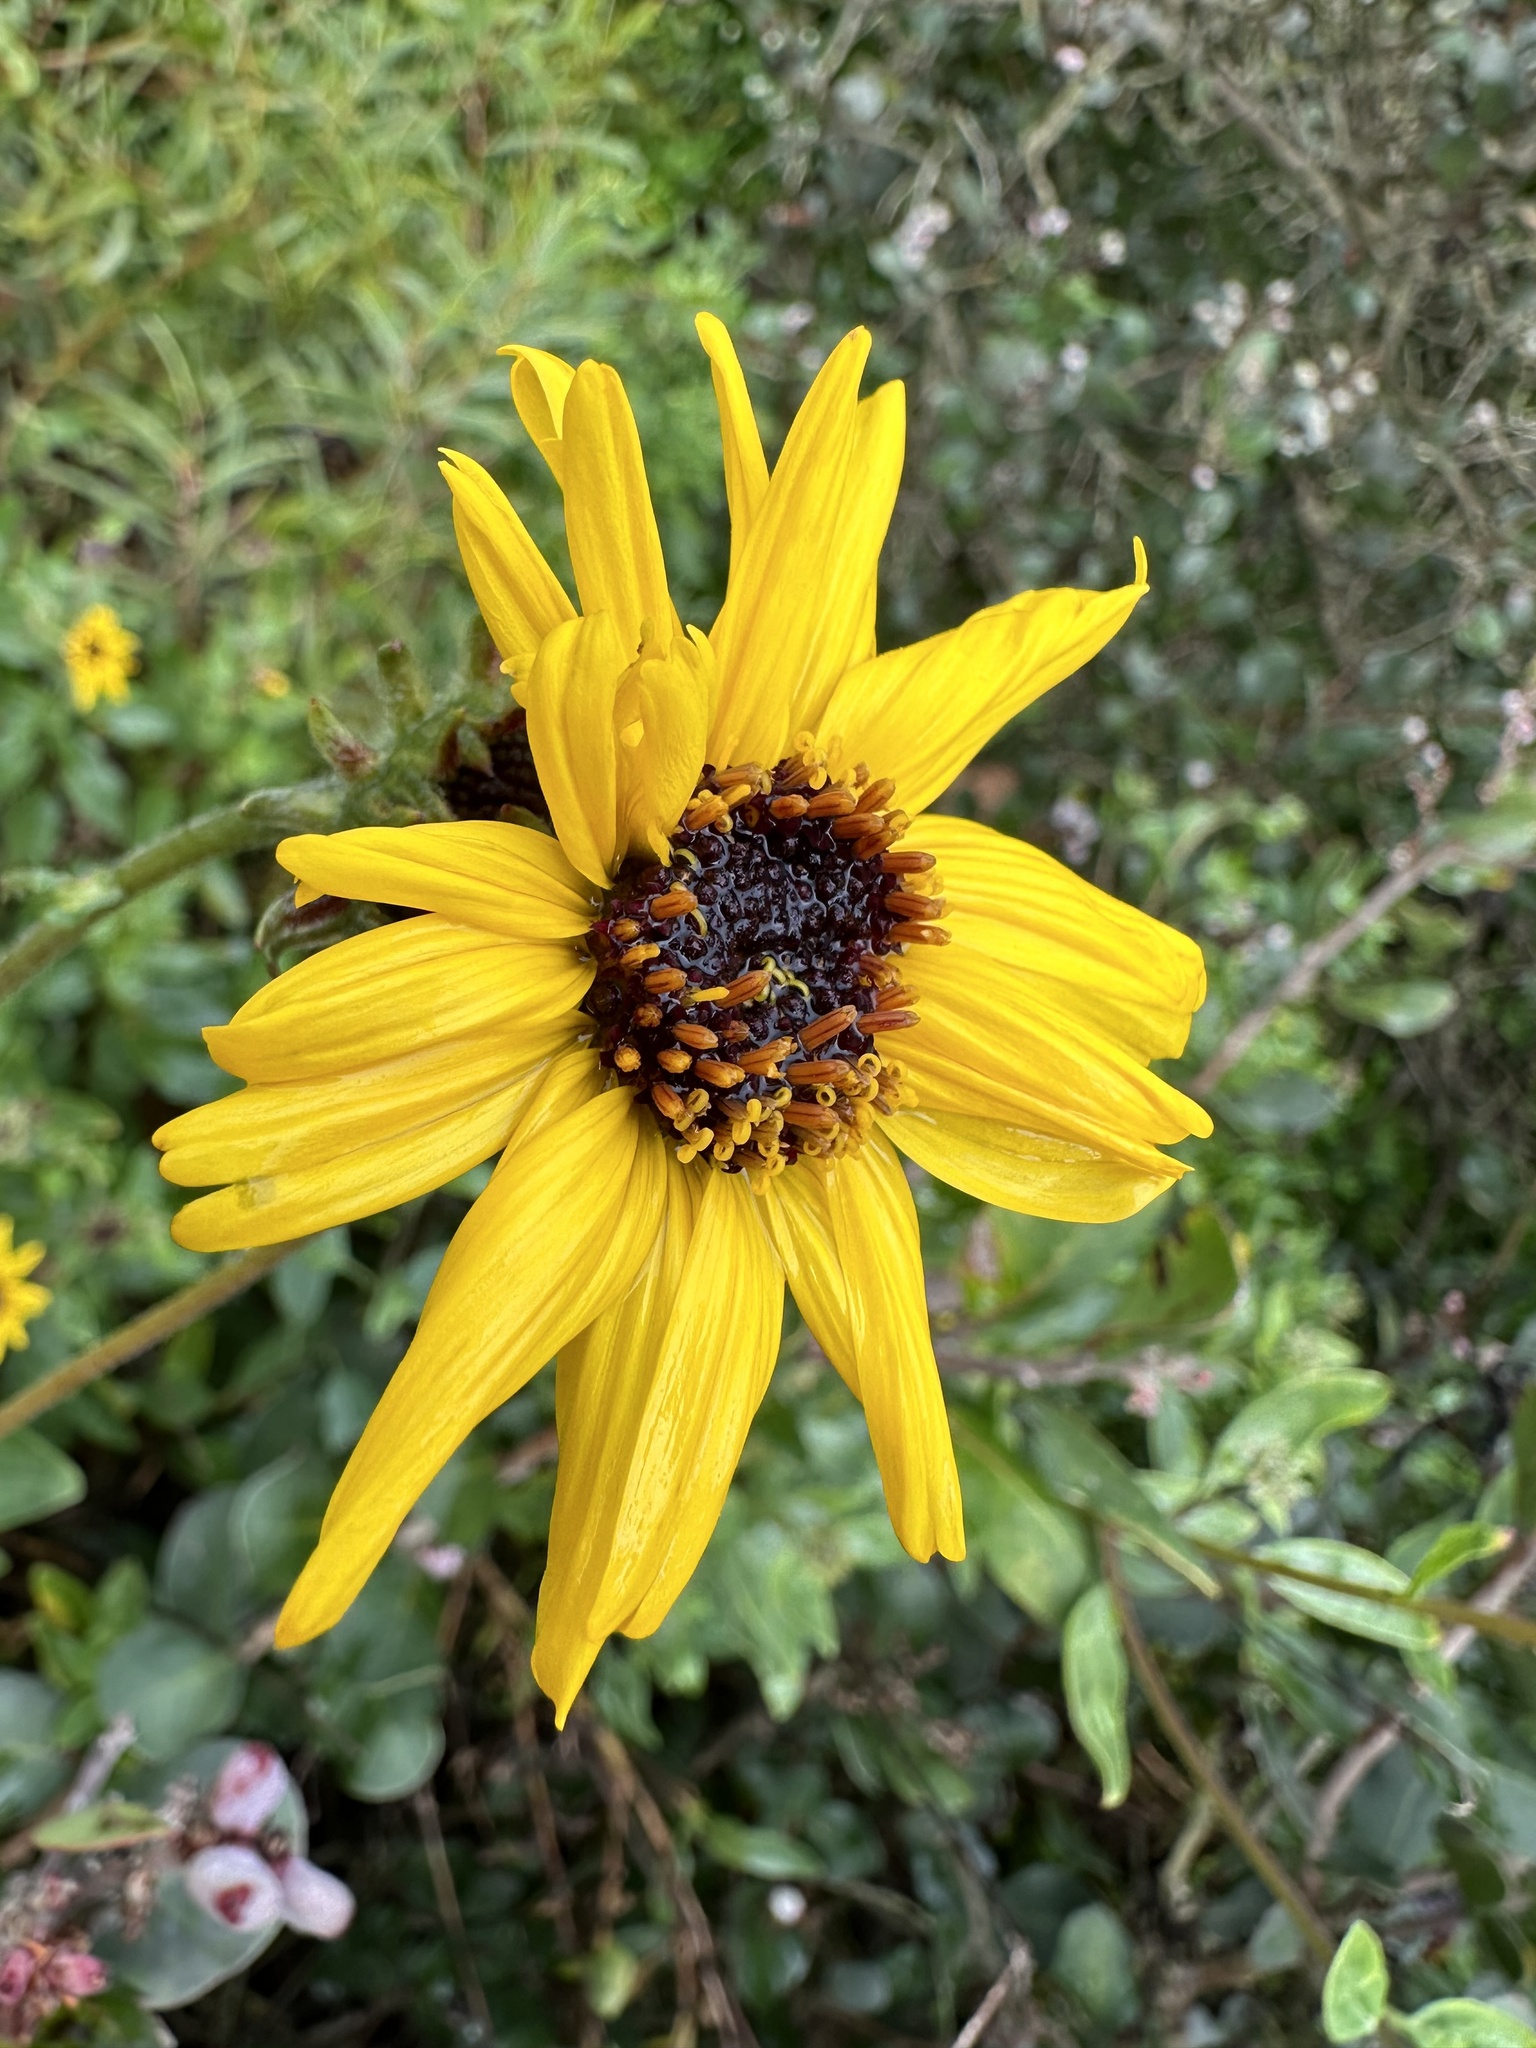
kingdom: Plantae
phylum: Tracheophyta
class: Magnoliopsida
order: Asterales
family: Asteraceae
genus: Encelia
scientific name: Encelia californica
